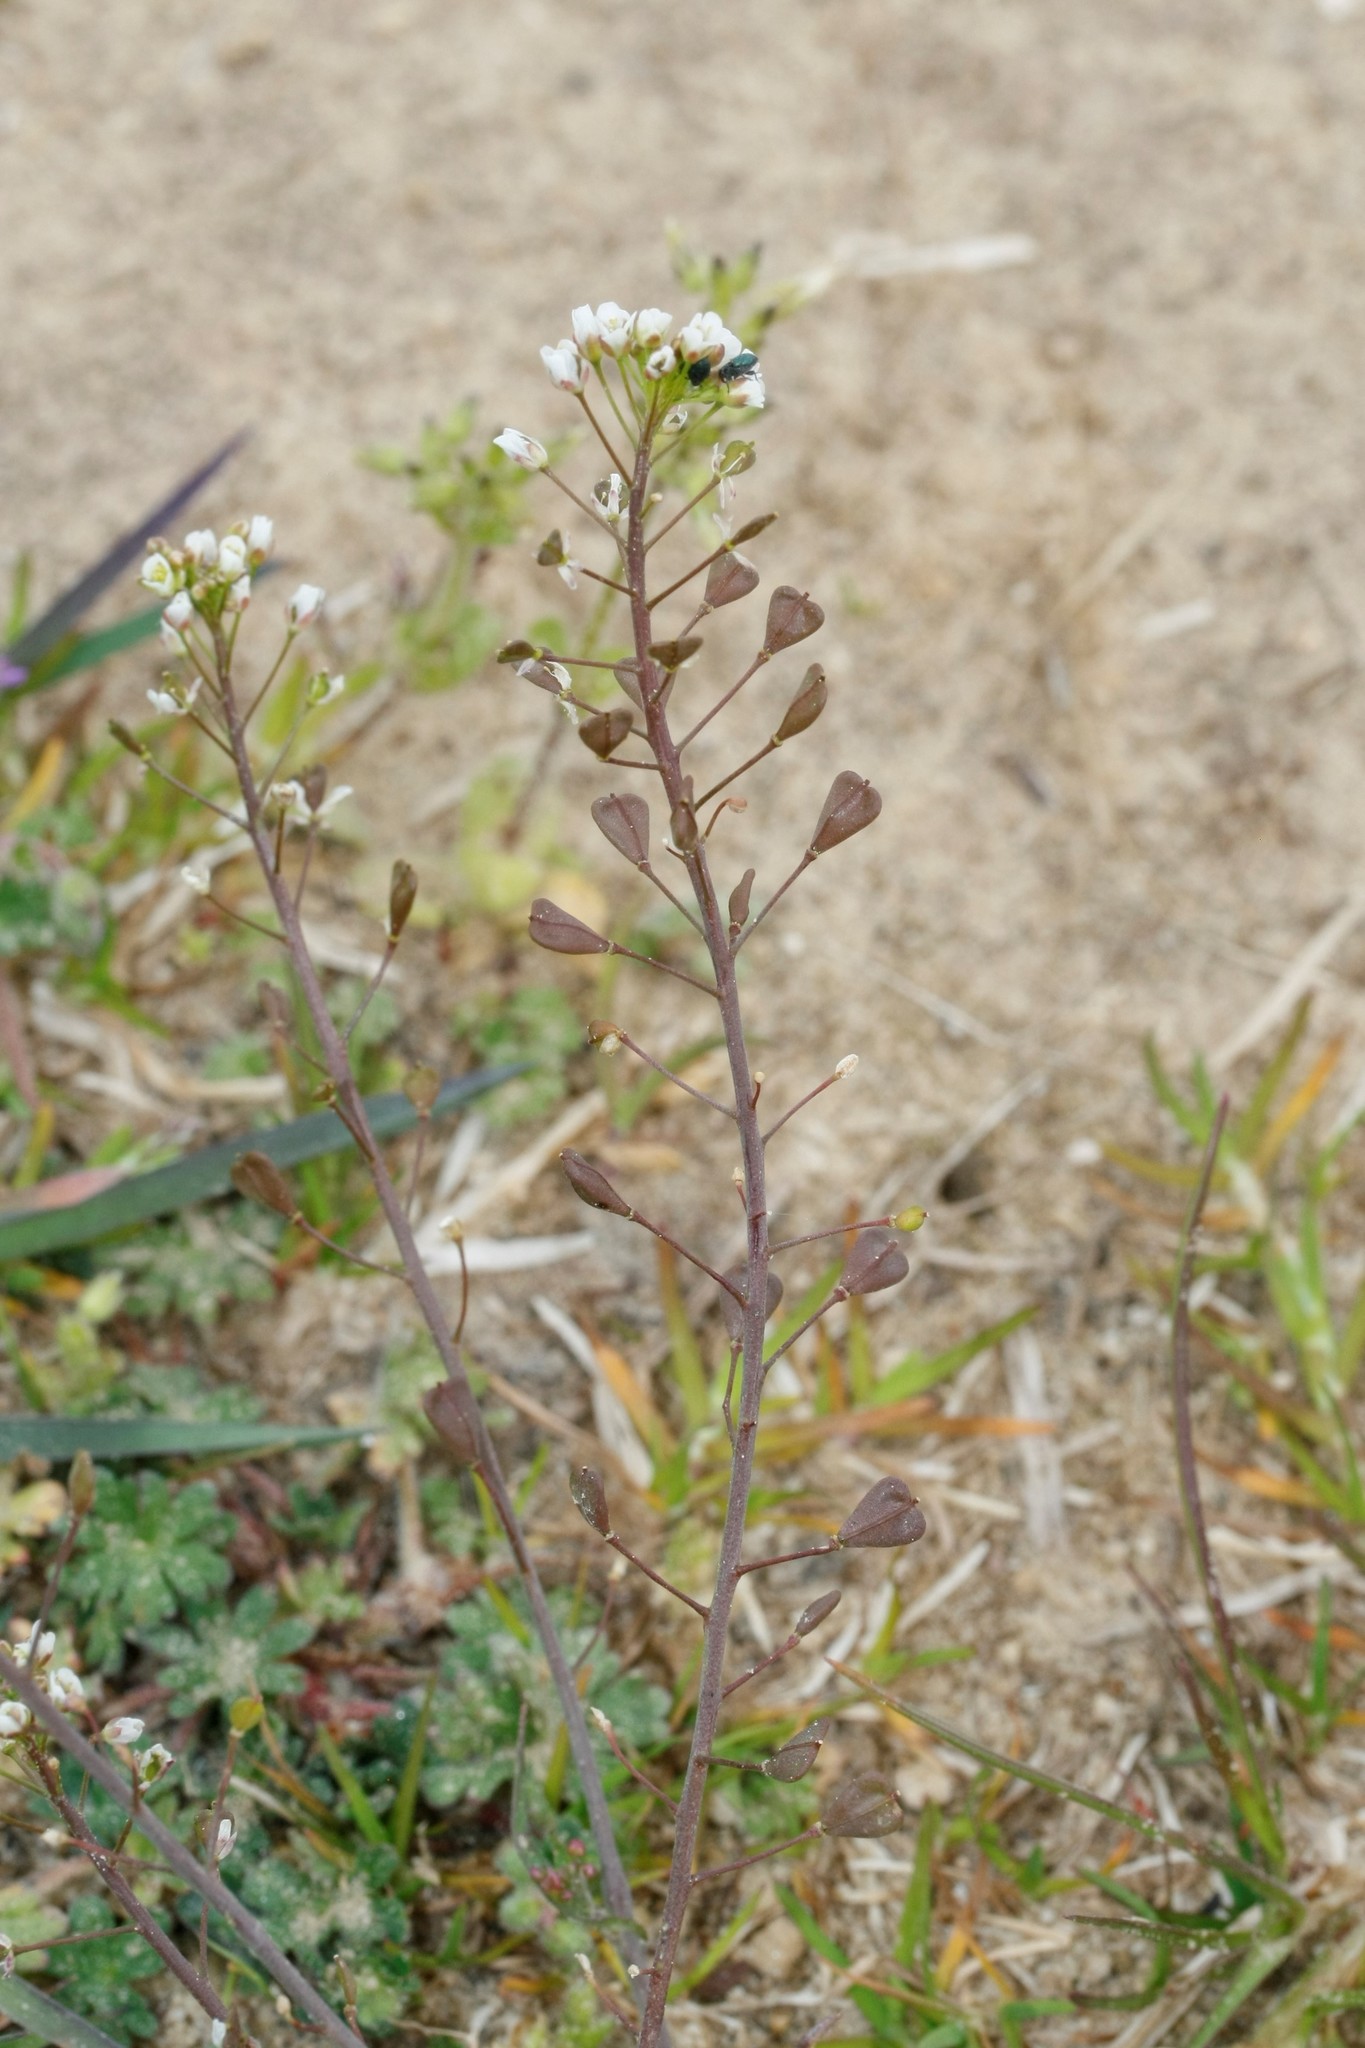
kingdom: Plantae
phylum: Tracheophyta
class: Magnoliopsida
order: Brassicales
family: Brassicaceae
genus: Capsella
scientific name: Capsella bursa-pastoris
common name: Shepherd's purse
